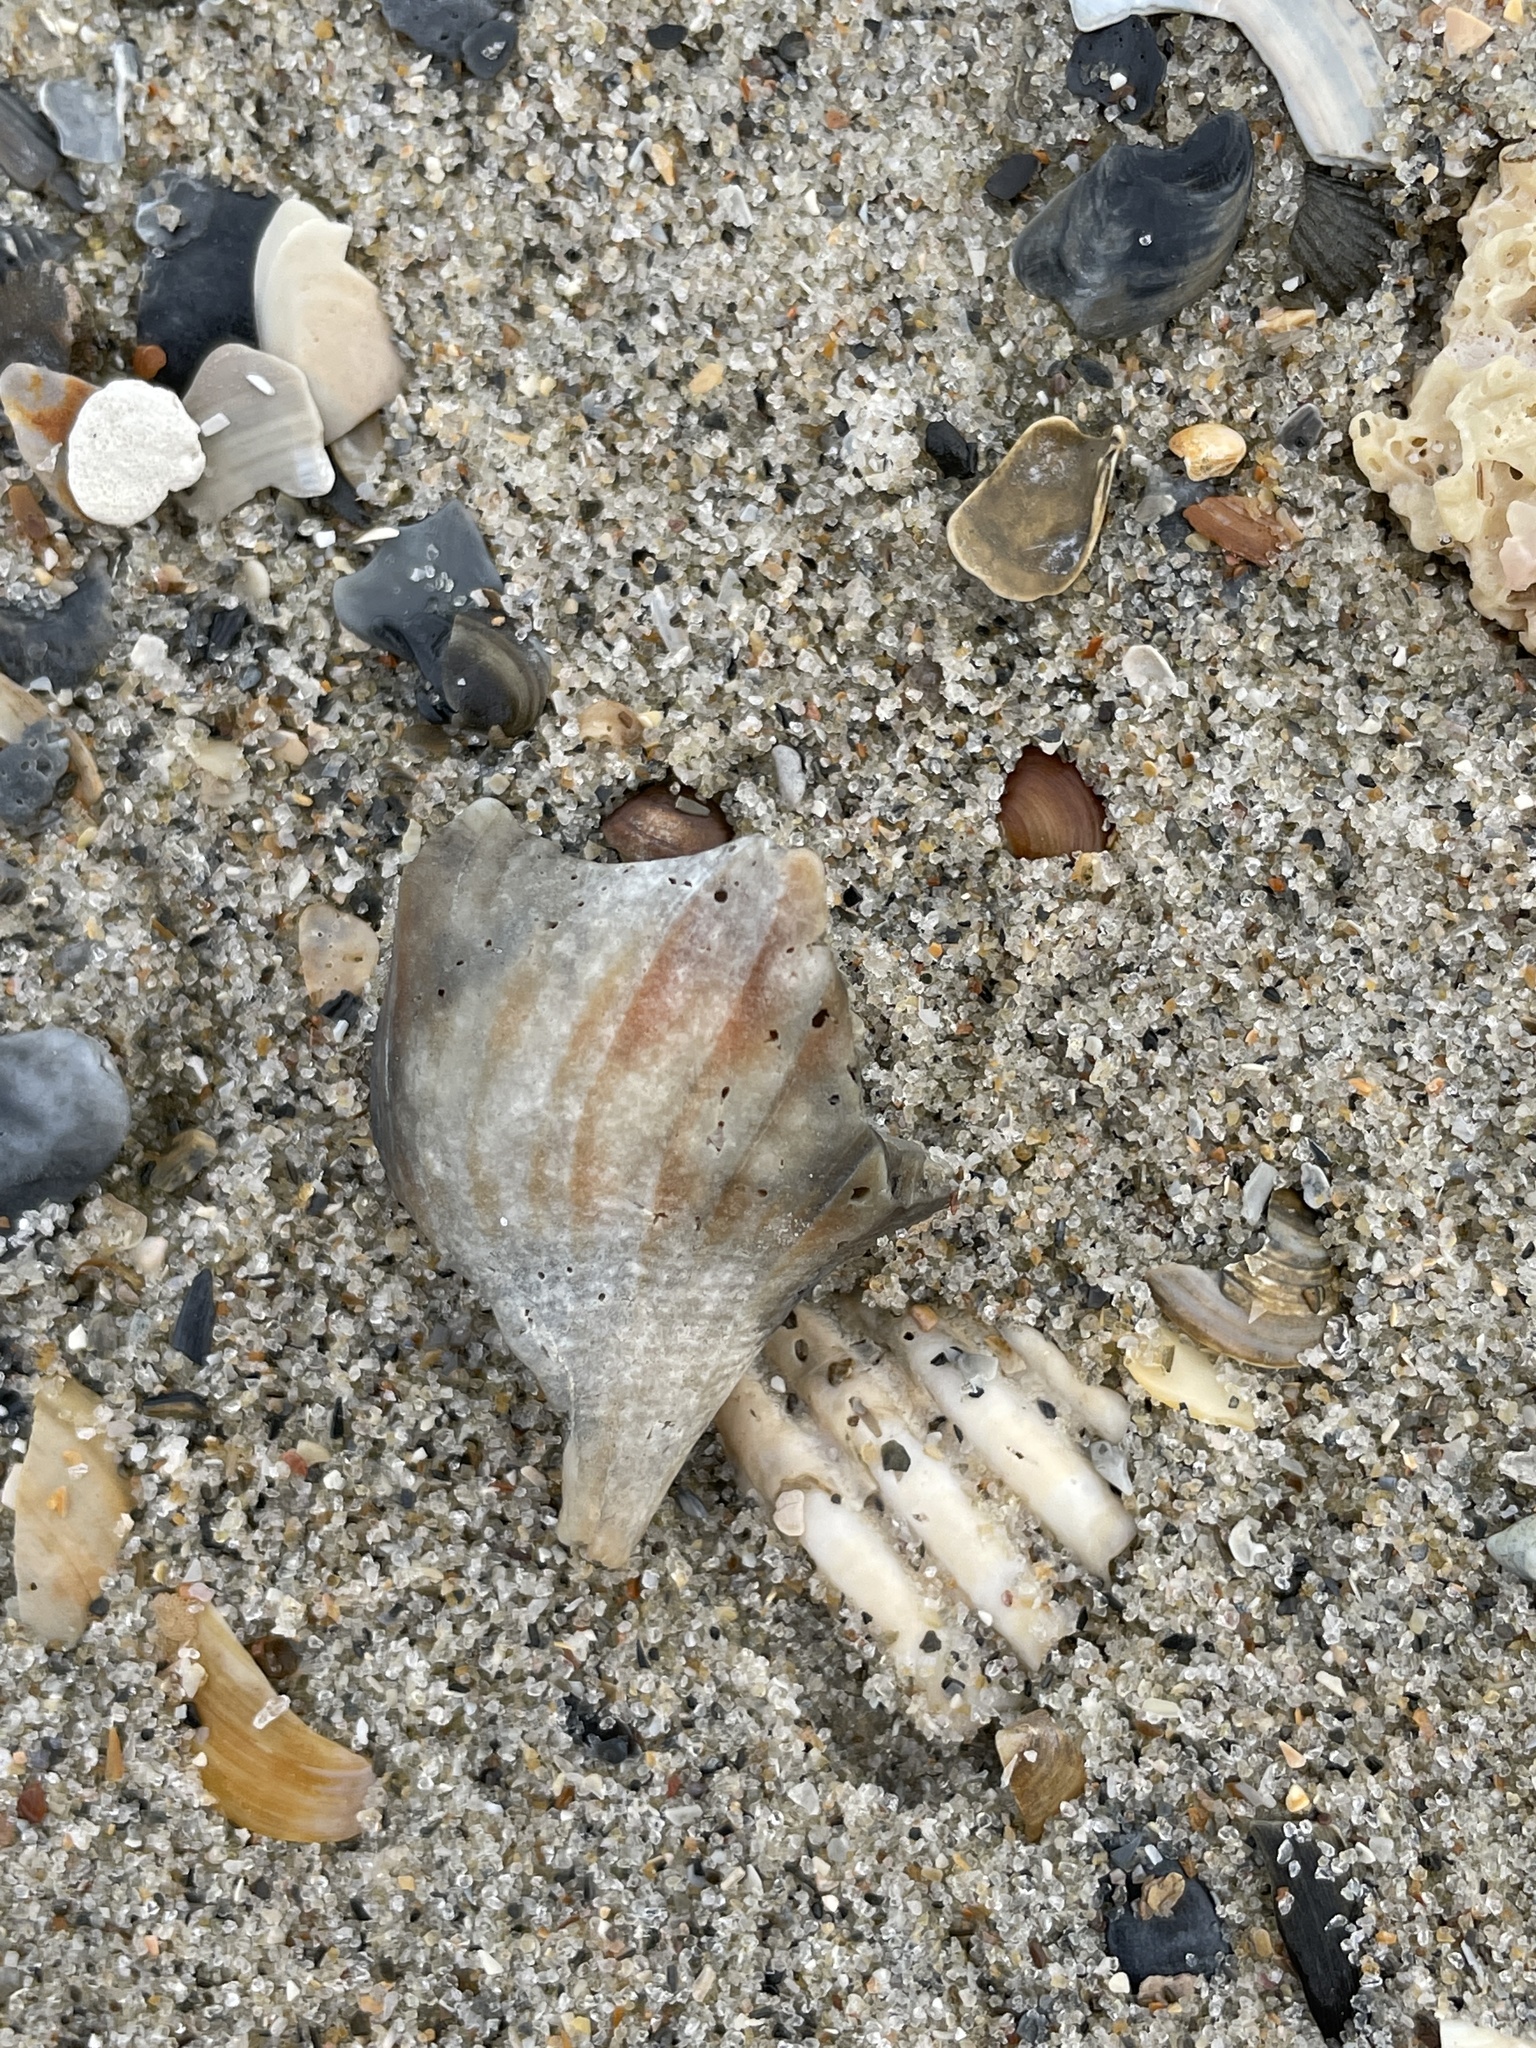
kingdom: Animalia
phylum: Mollusca
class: Gastropoda
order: Neogastropoda
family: Busyconidae
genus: Busycon
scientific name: Busycon carica
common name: Knobbed whelk
